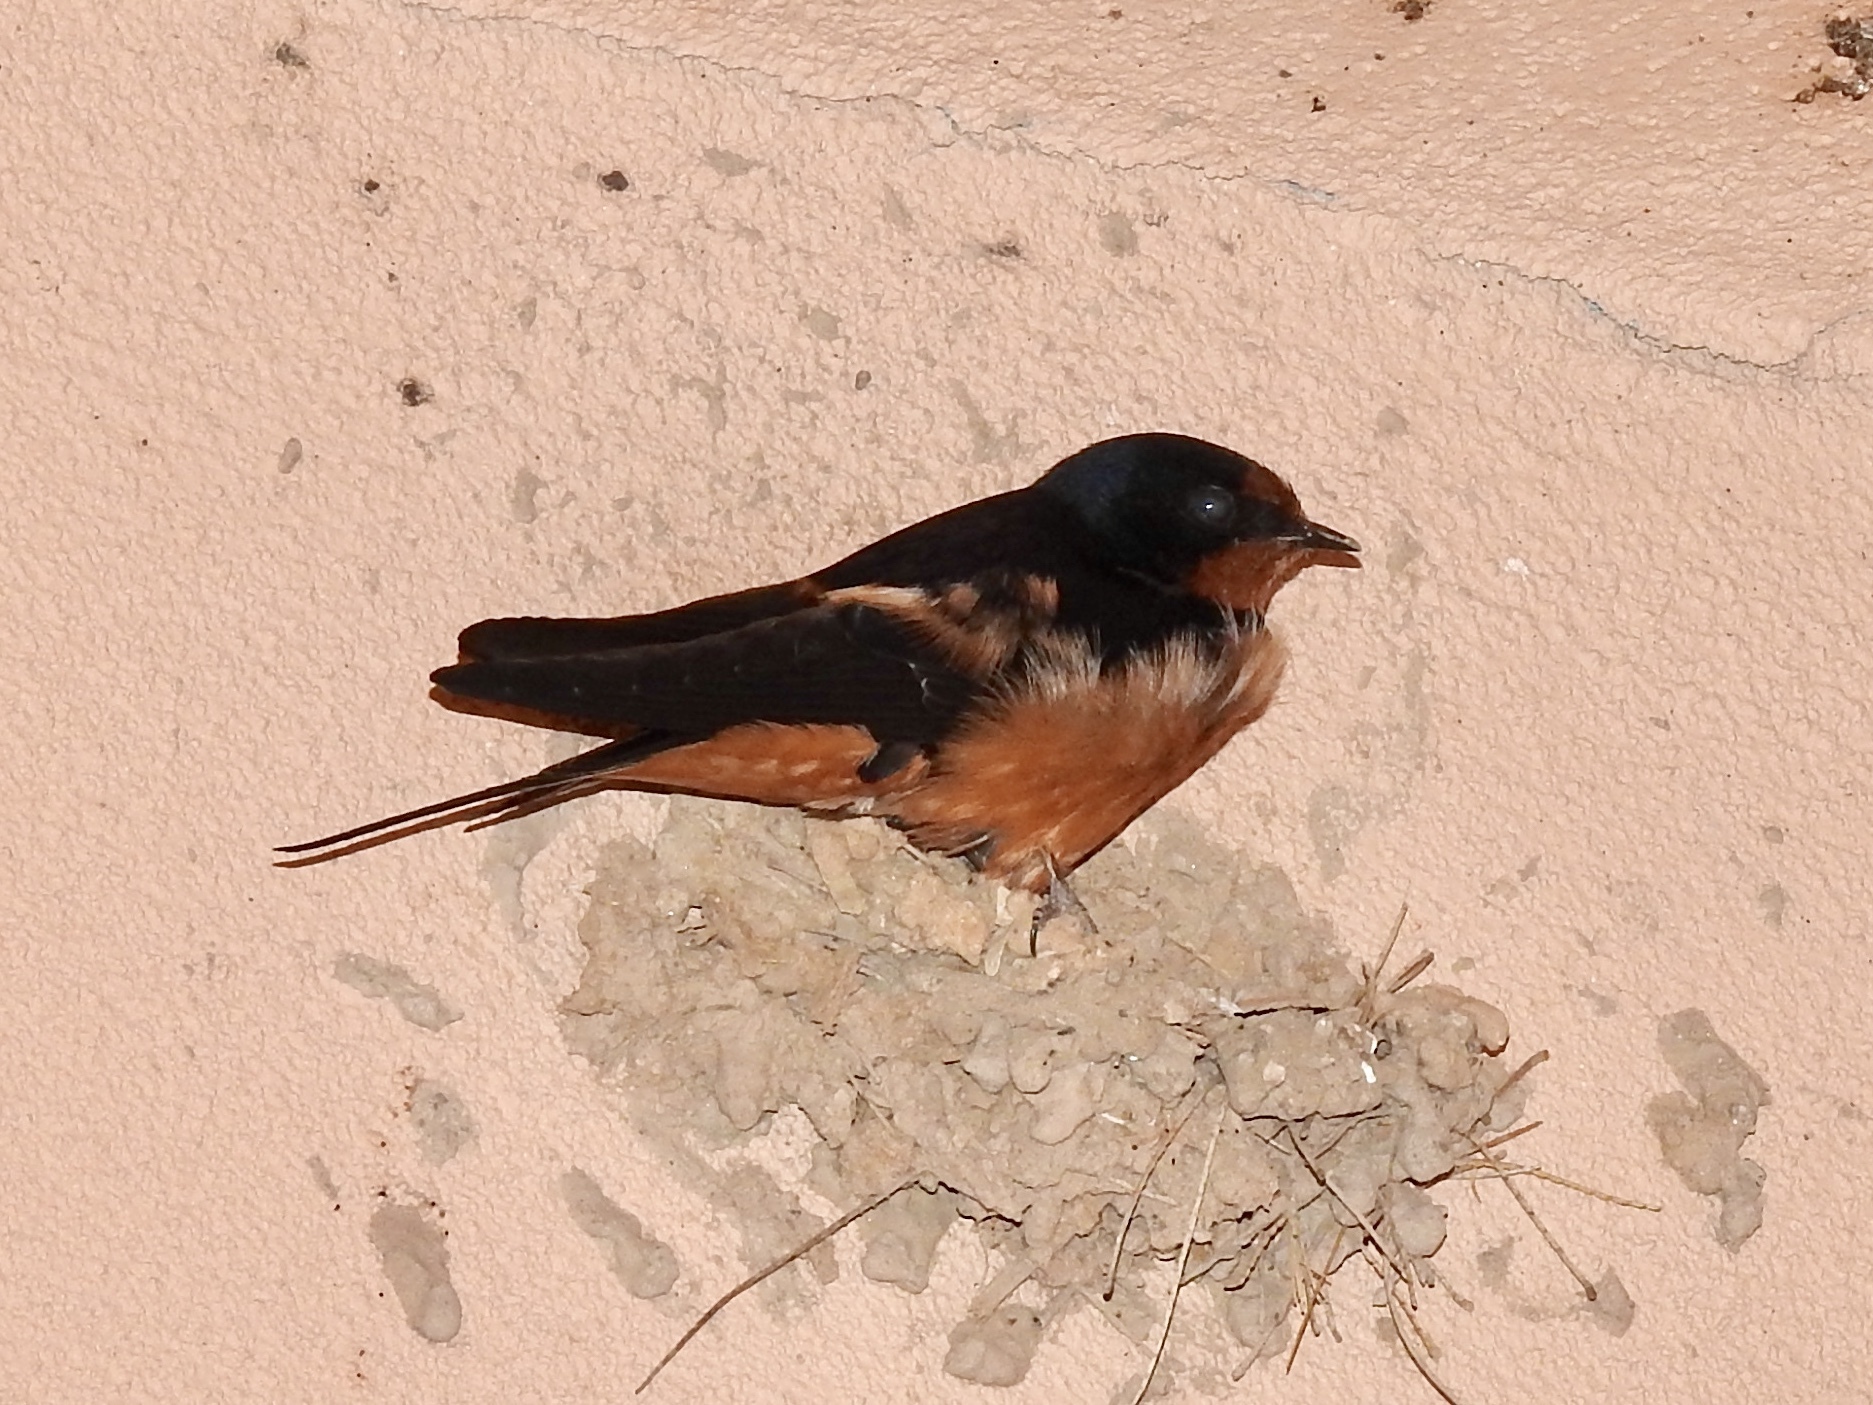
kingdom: Animalia
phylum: Chordata
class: Aves
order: Passeriformes
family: Hirundinidae
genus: Hirundo
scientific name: Hirundo rustica
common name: Barn swallow
